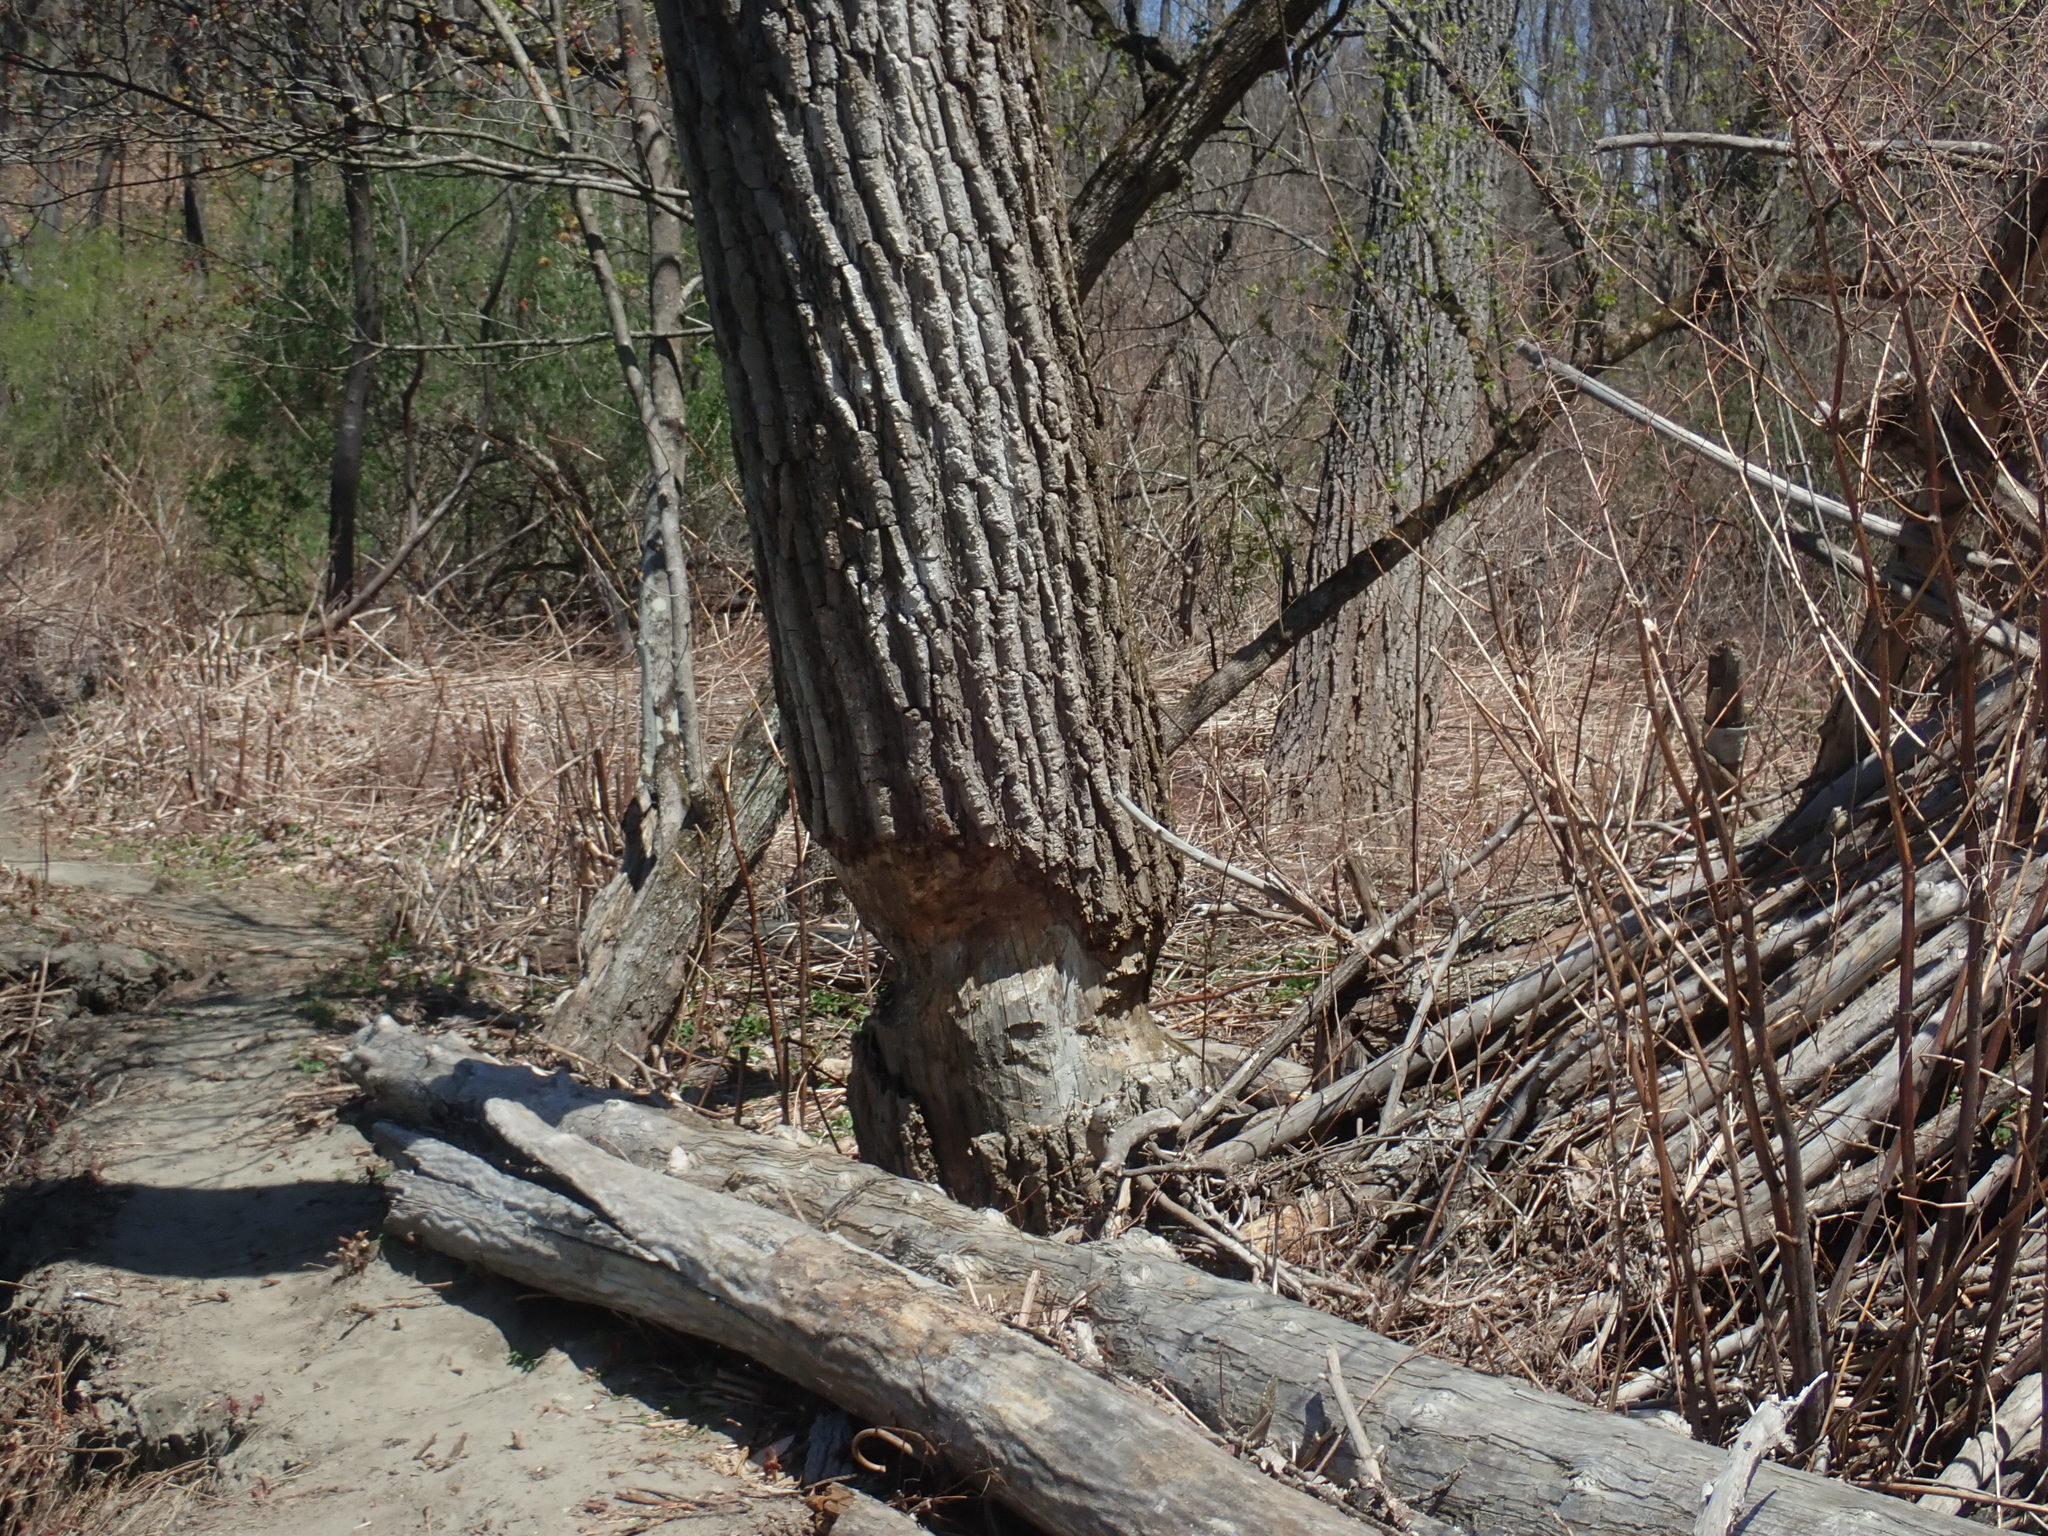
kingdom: Animalia
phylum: Chordata
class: Mammalia
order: Rodentia
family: Castoridae
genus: Castor
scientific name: Castor canadensis
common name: American beaver
